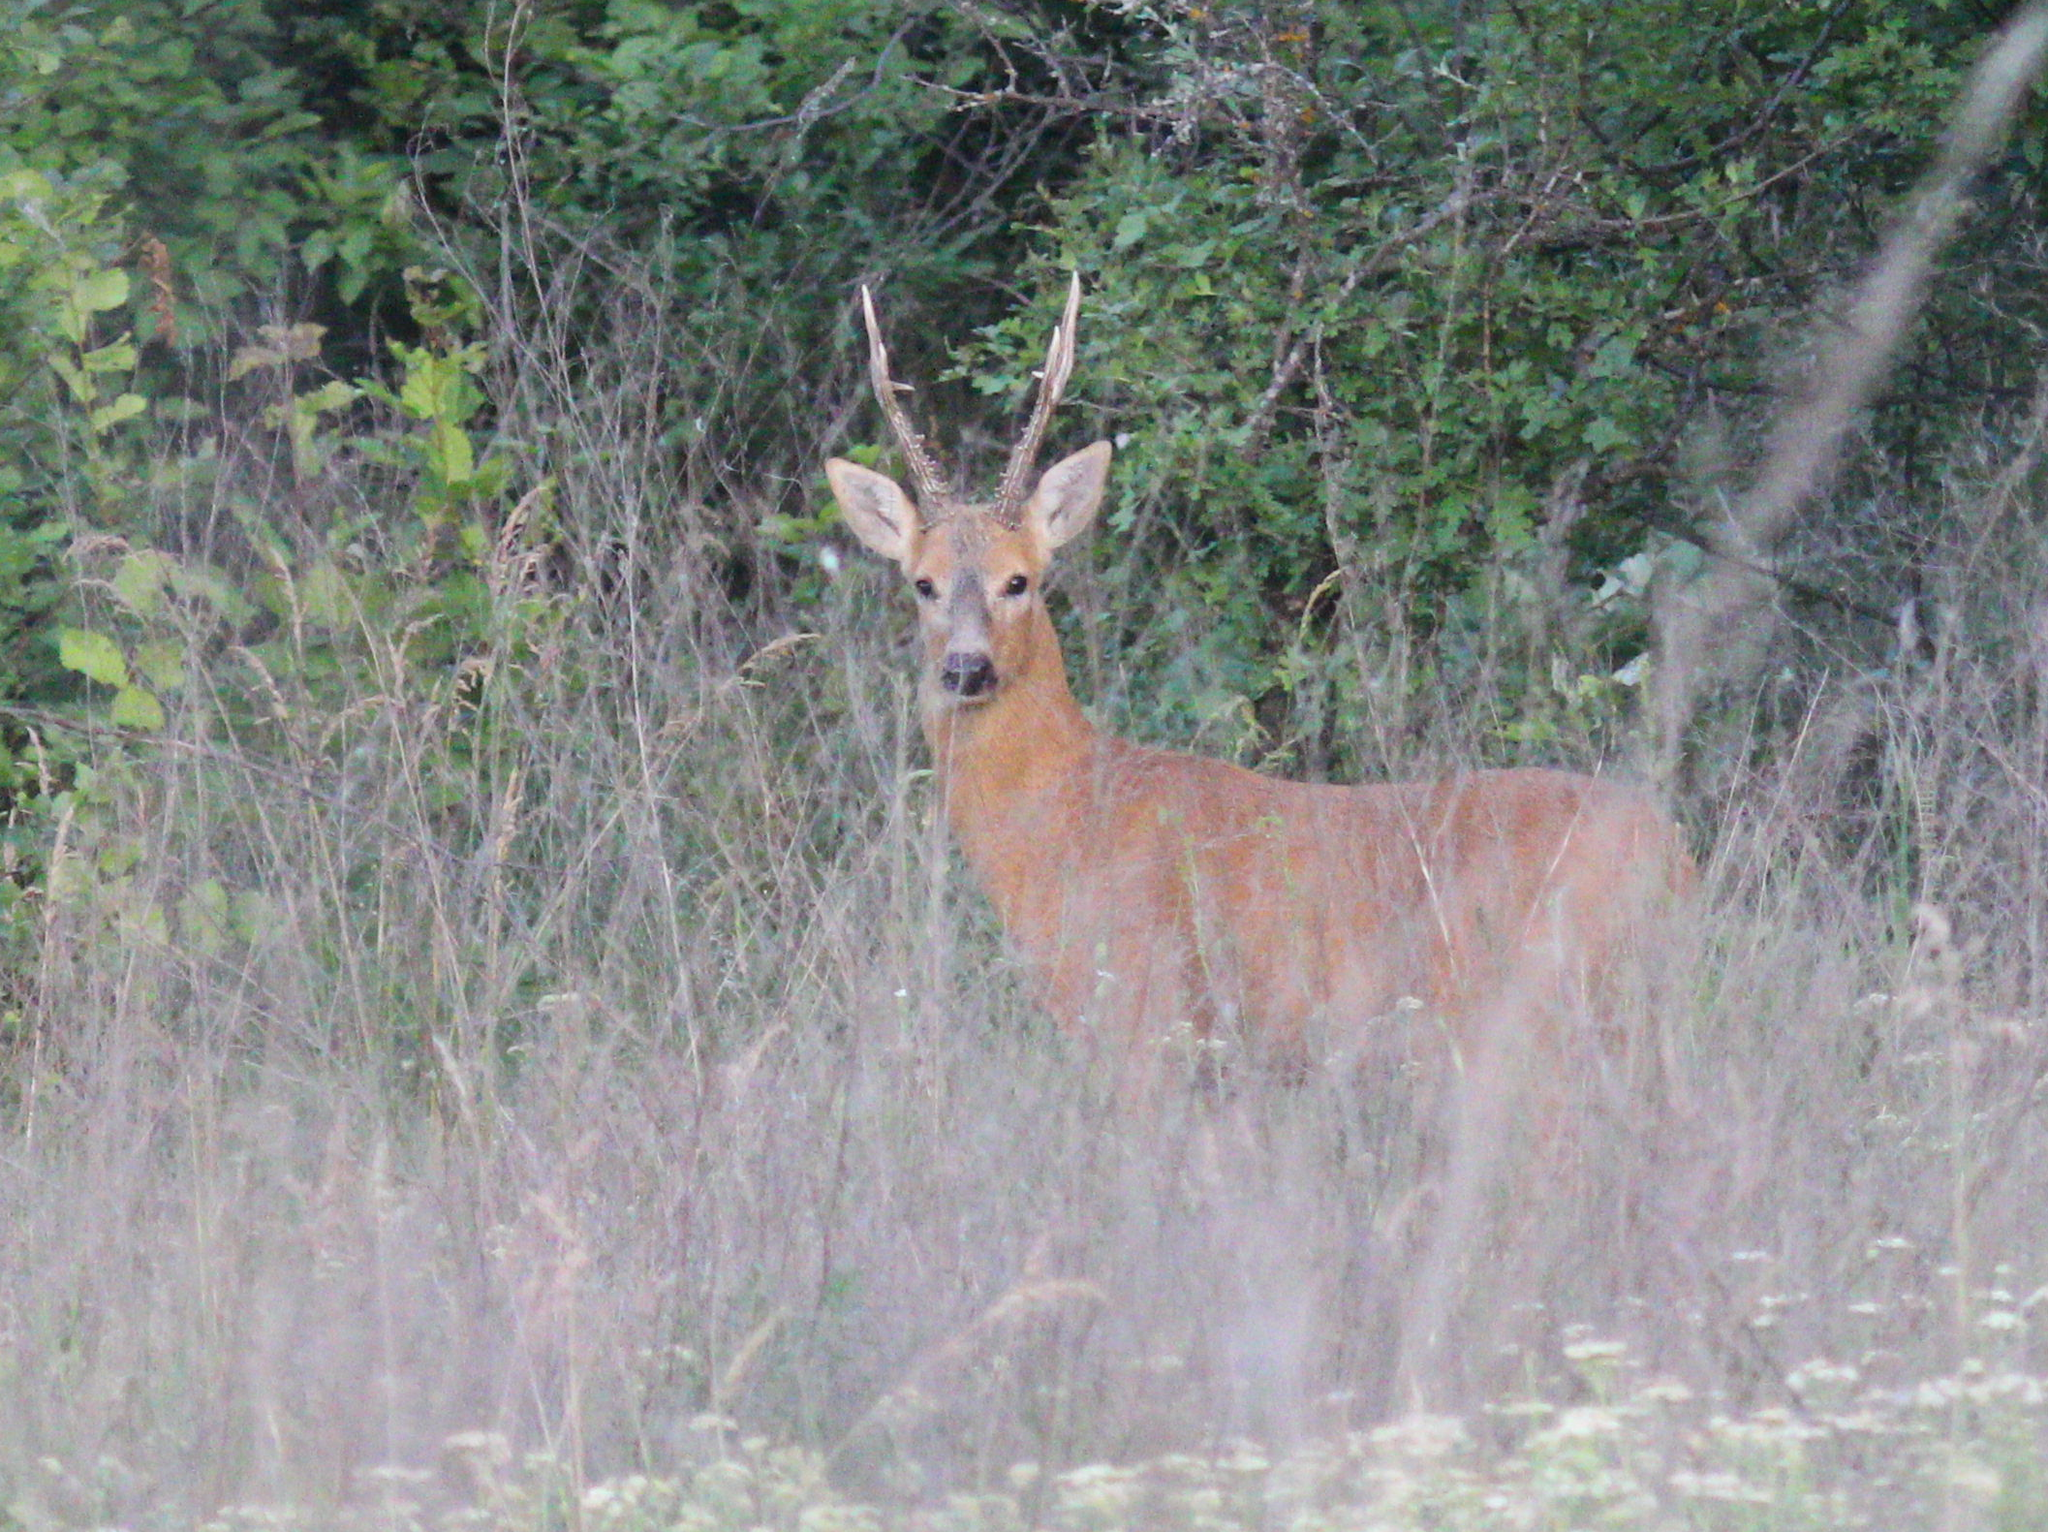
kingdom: Animalia
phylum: Chordata
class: Mammalia
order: Artiodactyla
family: Cervidae
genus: Capreolus
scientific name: Capreolus pygargus
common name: Siberian roe
